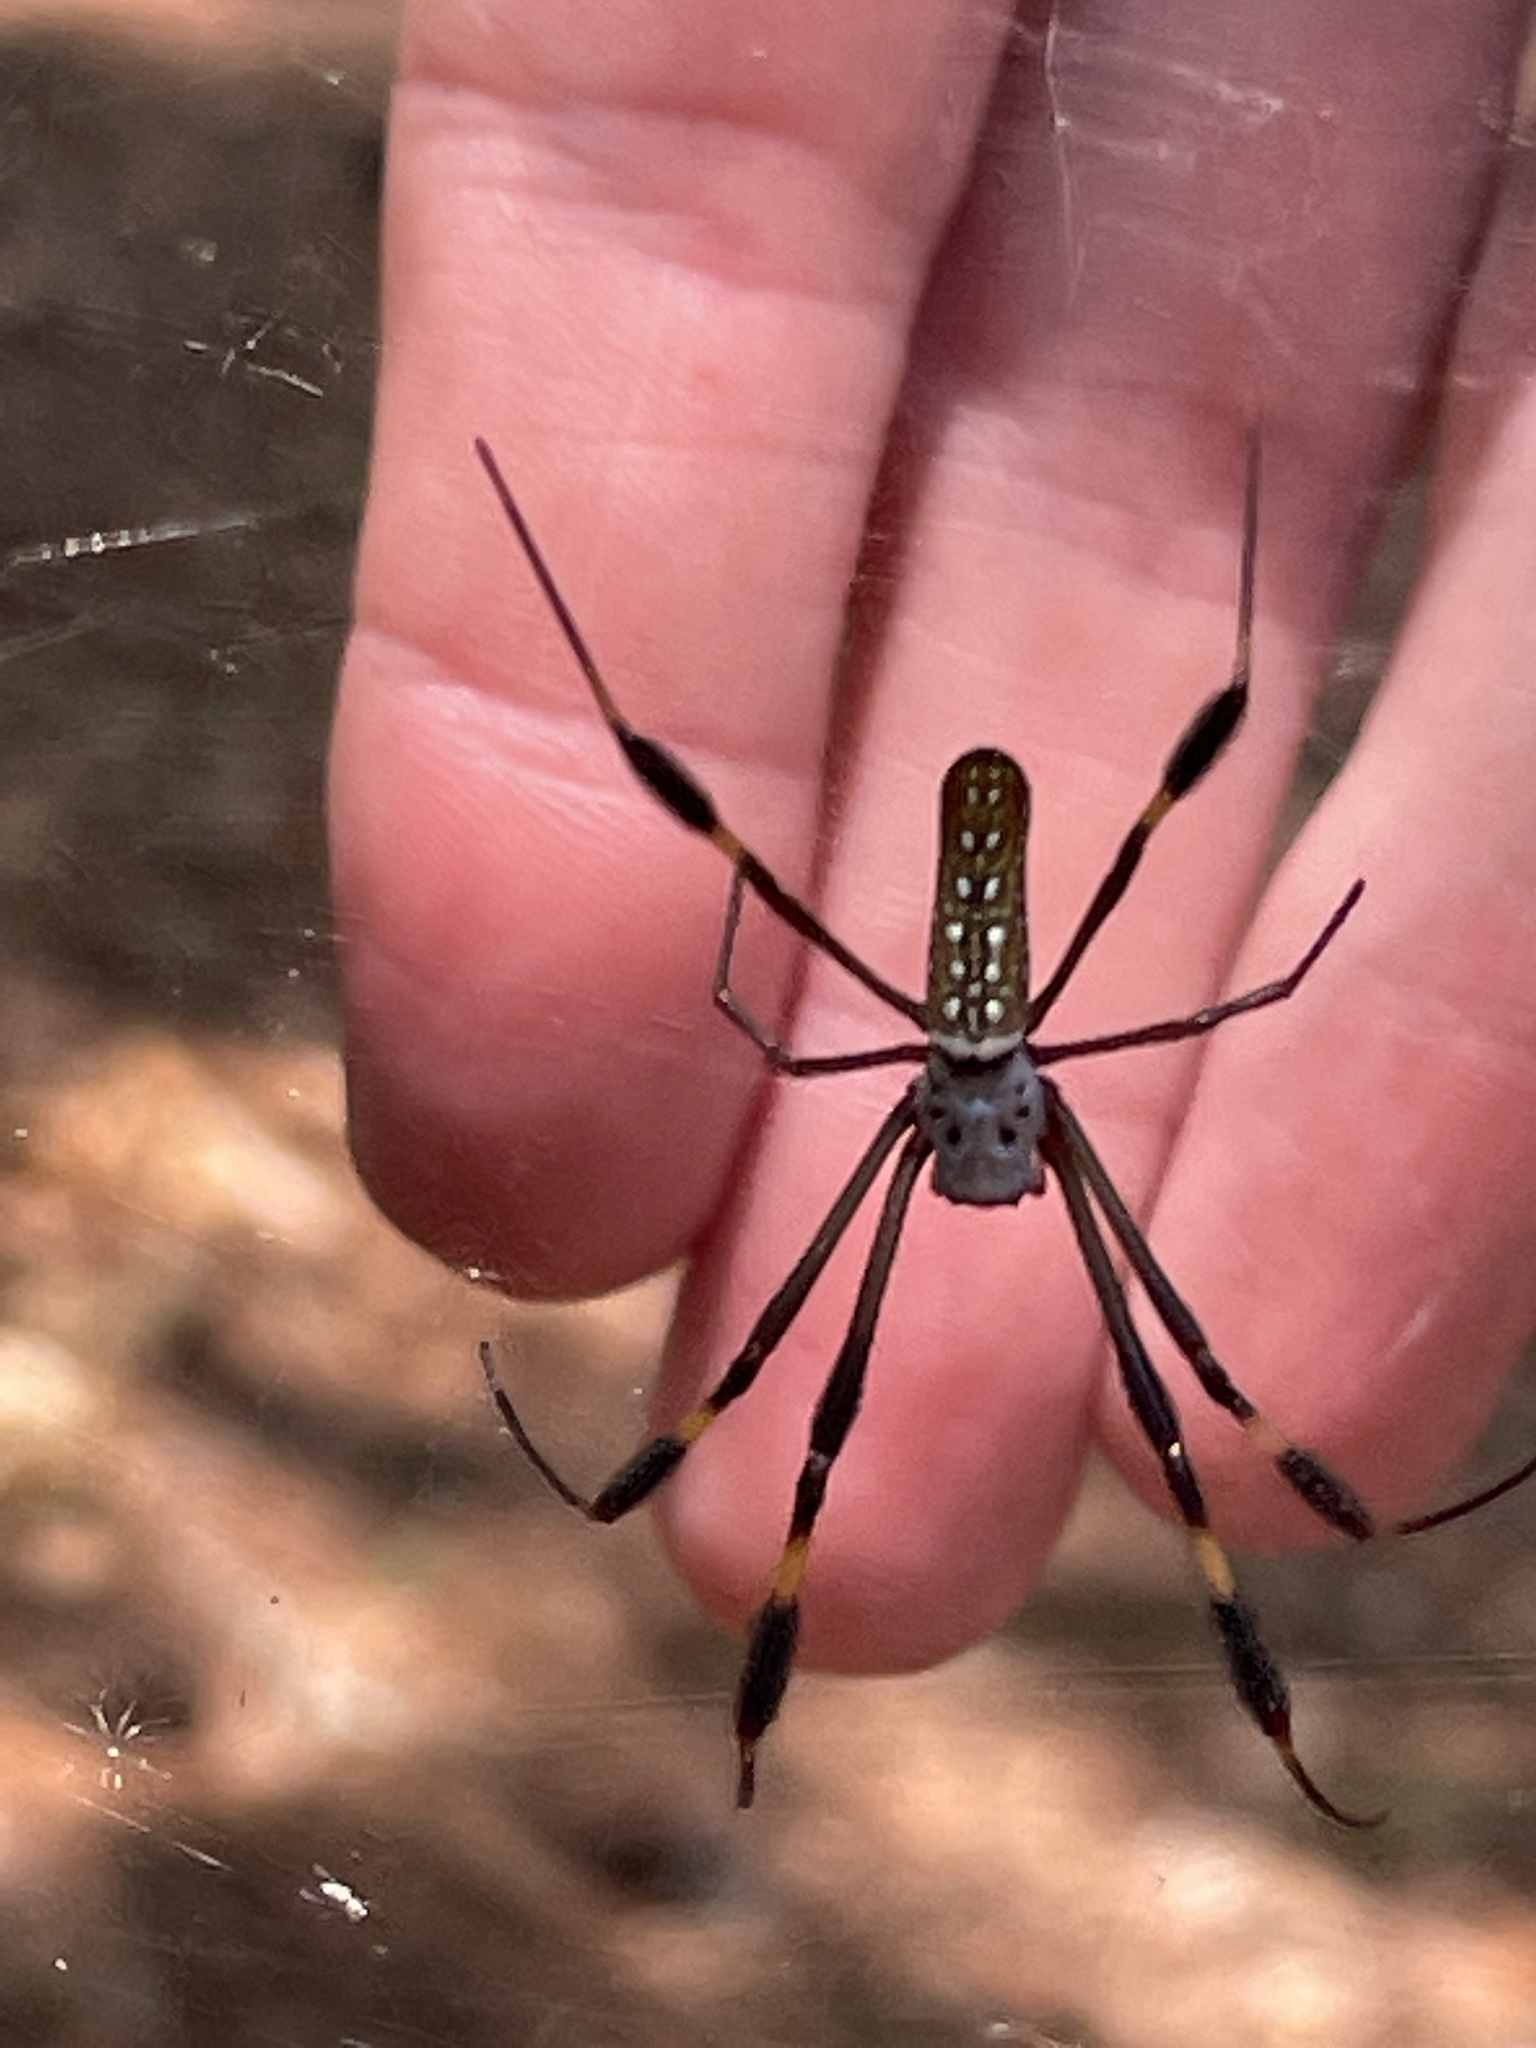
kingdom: Animalia
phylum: Arthropoda
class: Arachnida
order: Araneae
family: Araneidae
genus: Trichonephila
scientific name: Trichonephila clavipes
